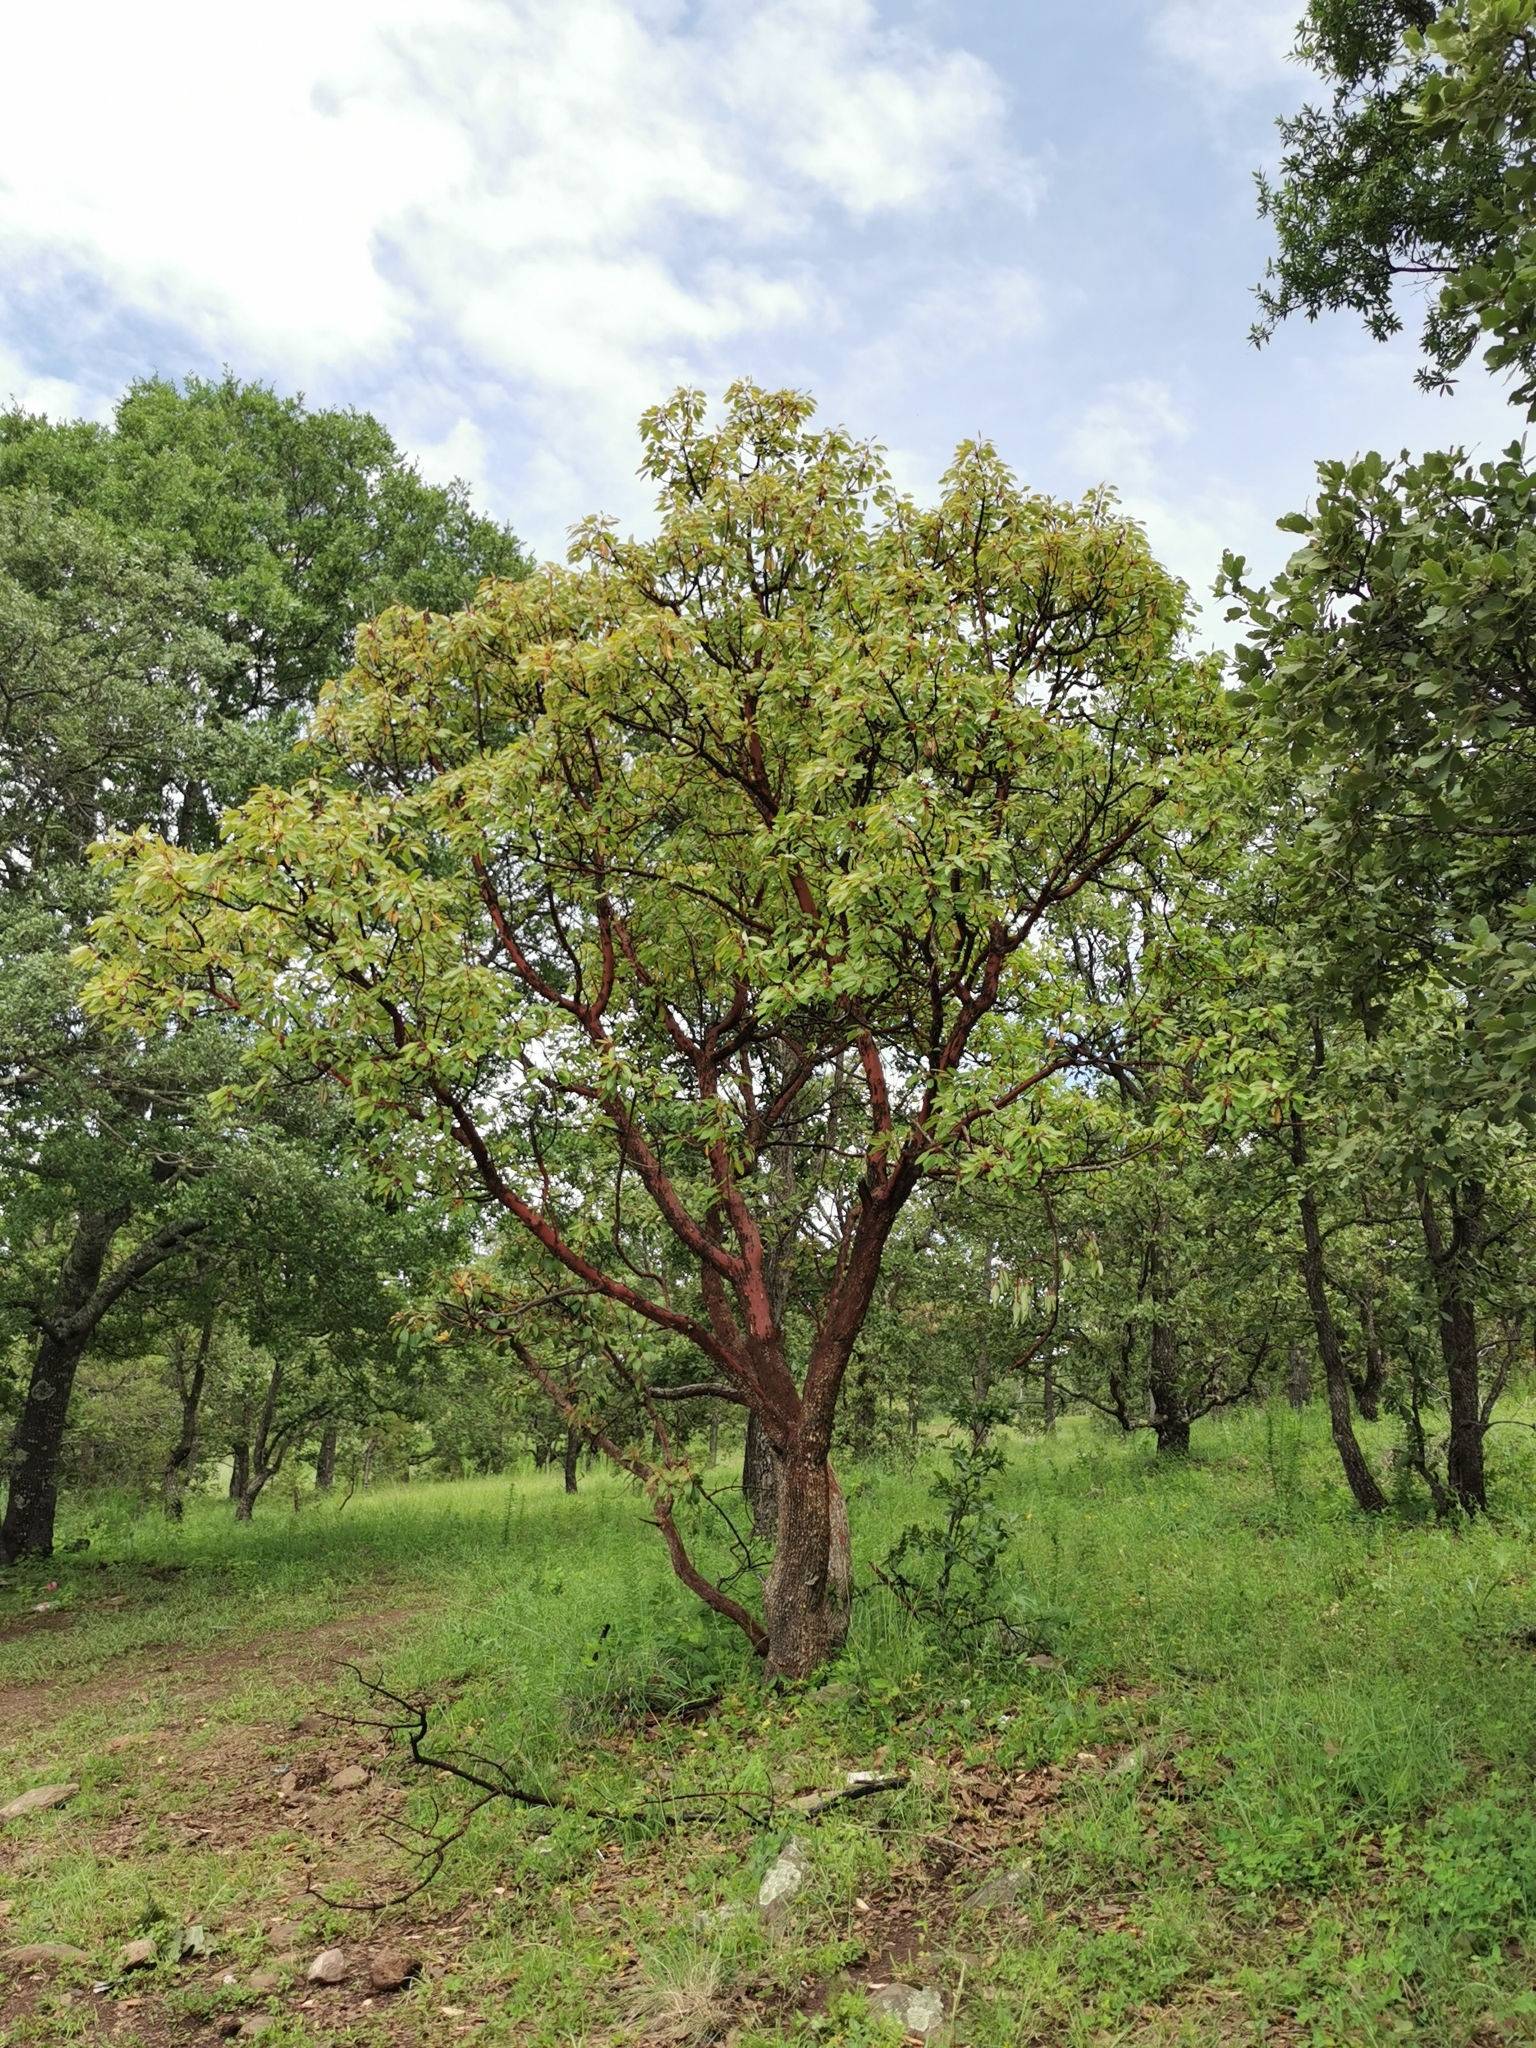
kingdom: Plantae
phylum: Tracheophyta
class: Magnoliopsida
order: Ericales
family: Ericaceae
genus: Arbutus
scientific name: Arbutus arizonica
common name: Arizona madrone
